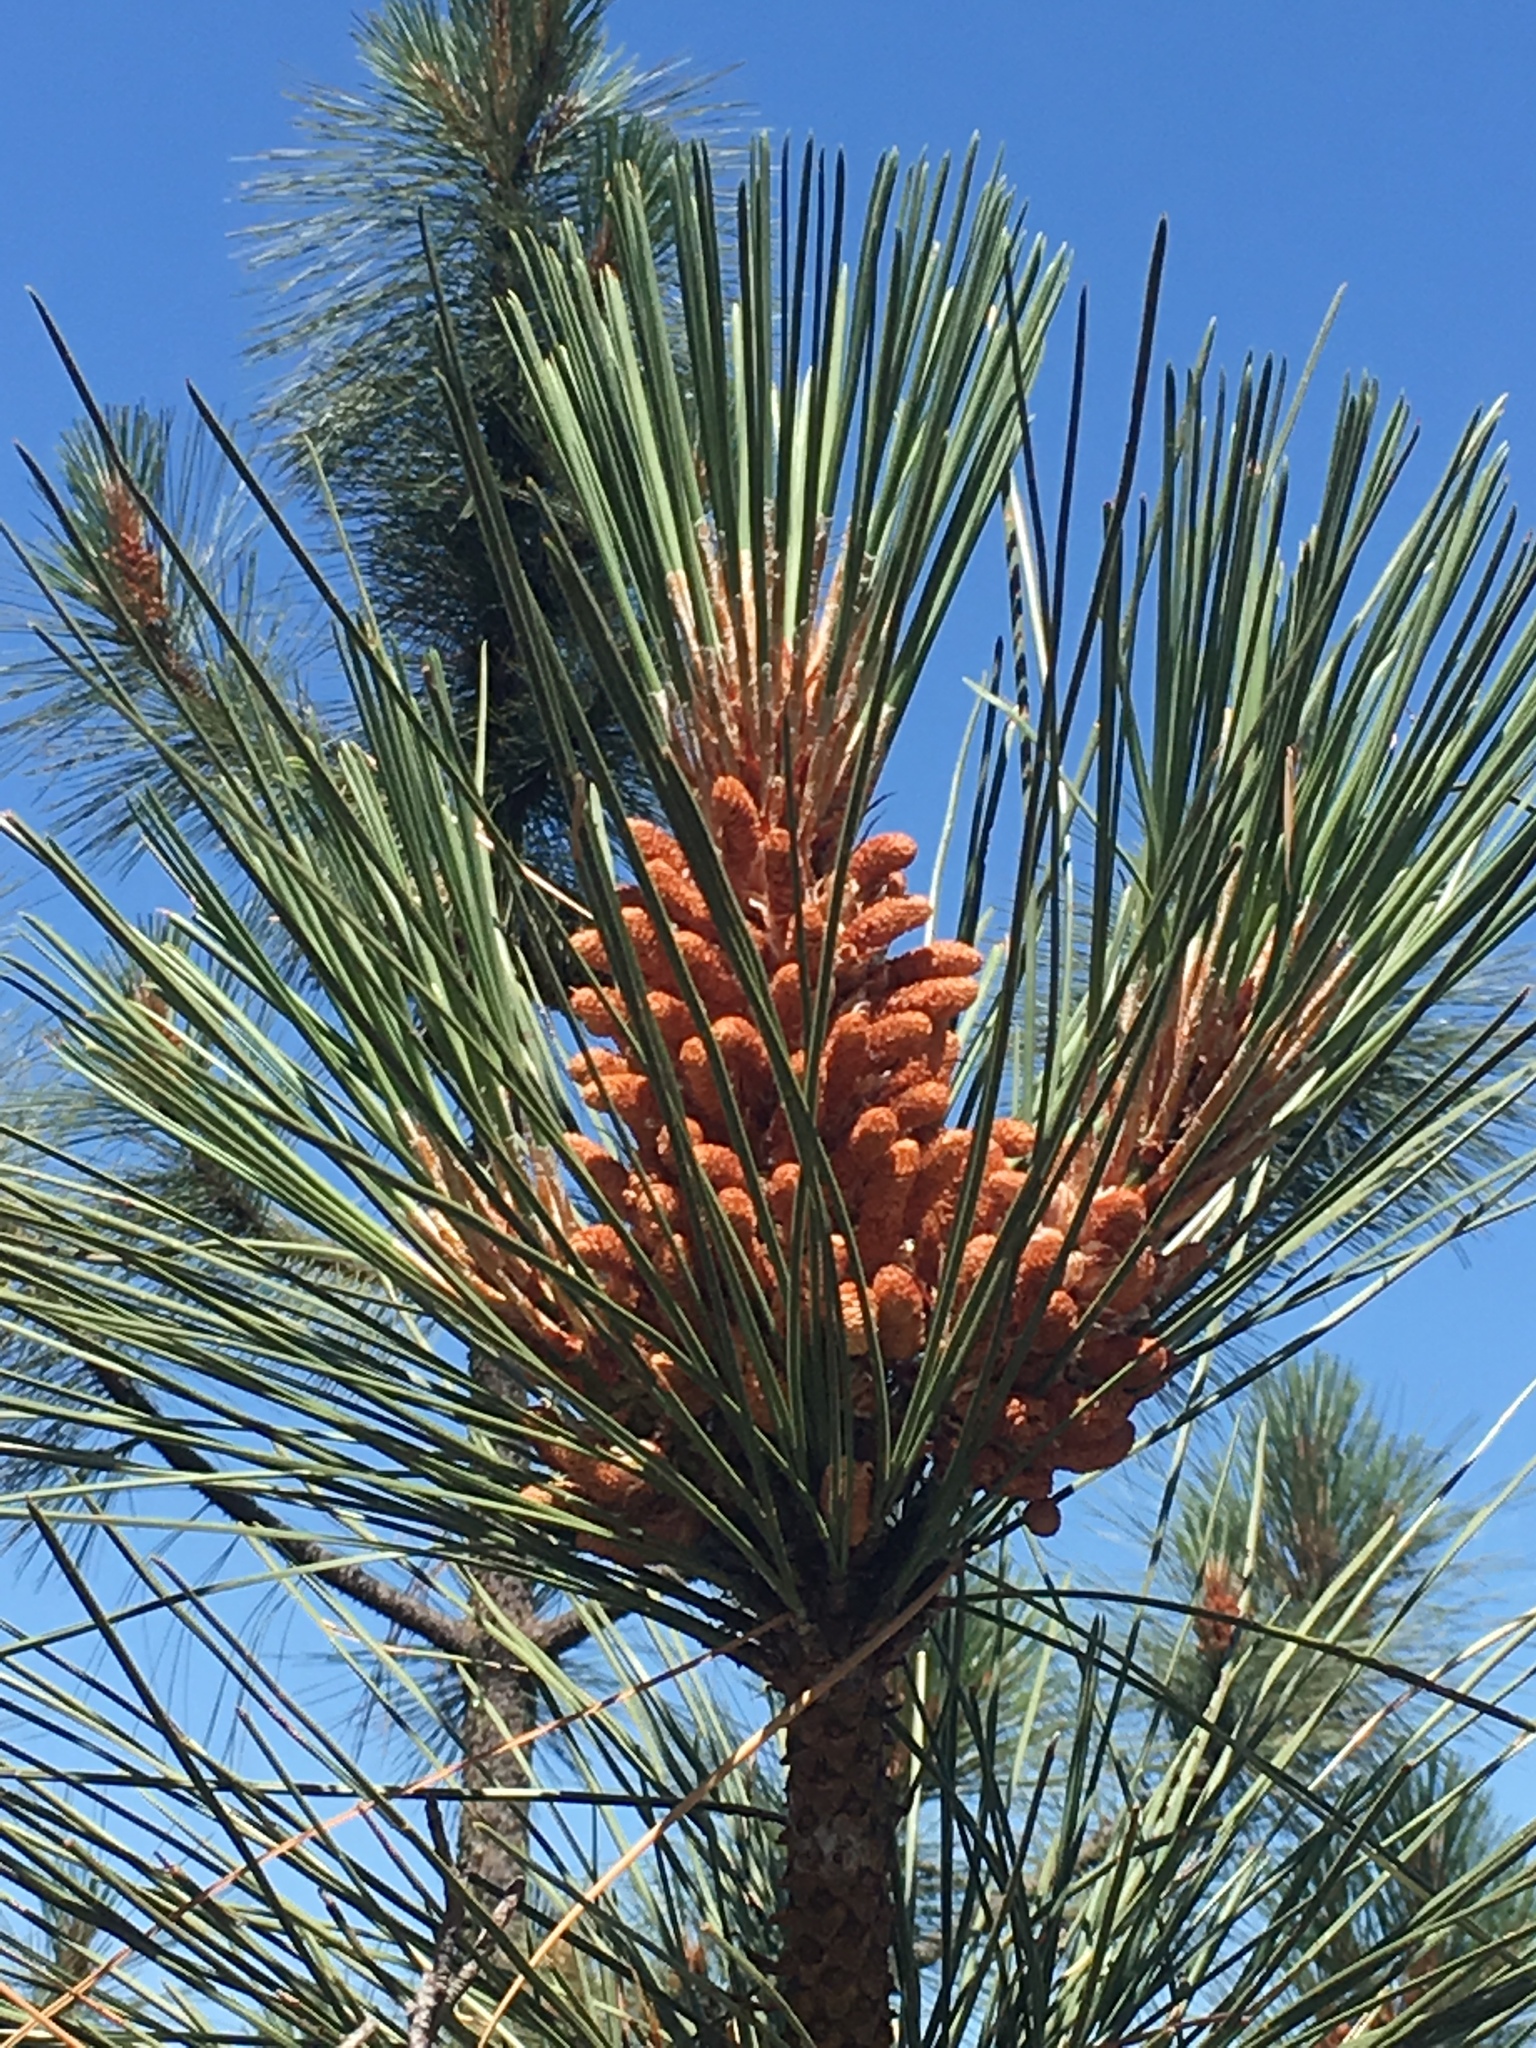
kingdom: Plantae
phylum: Tracheophyta
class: Pinopsida
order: Pinales
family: Pinaceae
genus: Pinus
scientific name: Pinus sabiniana
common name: Bull pine
